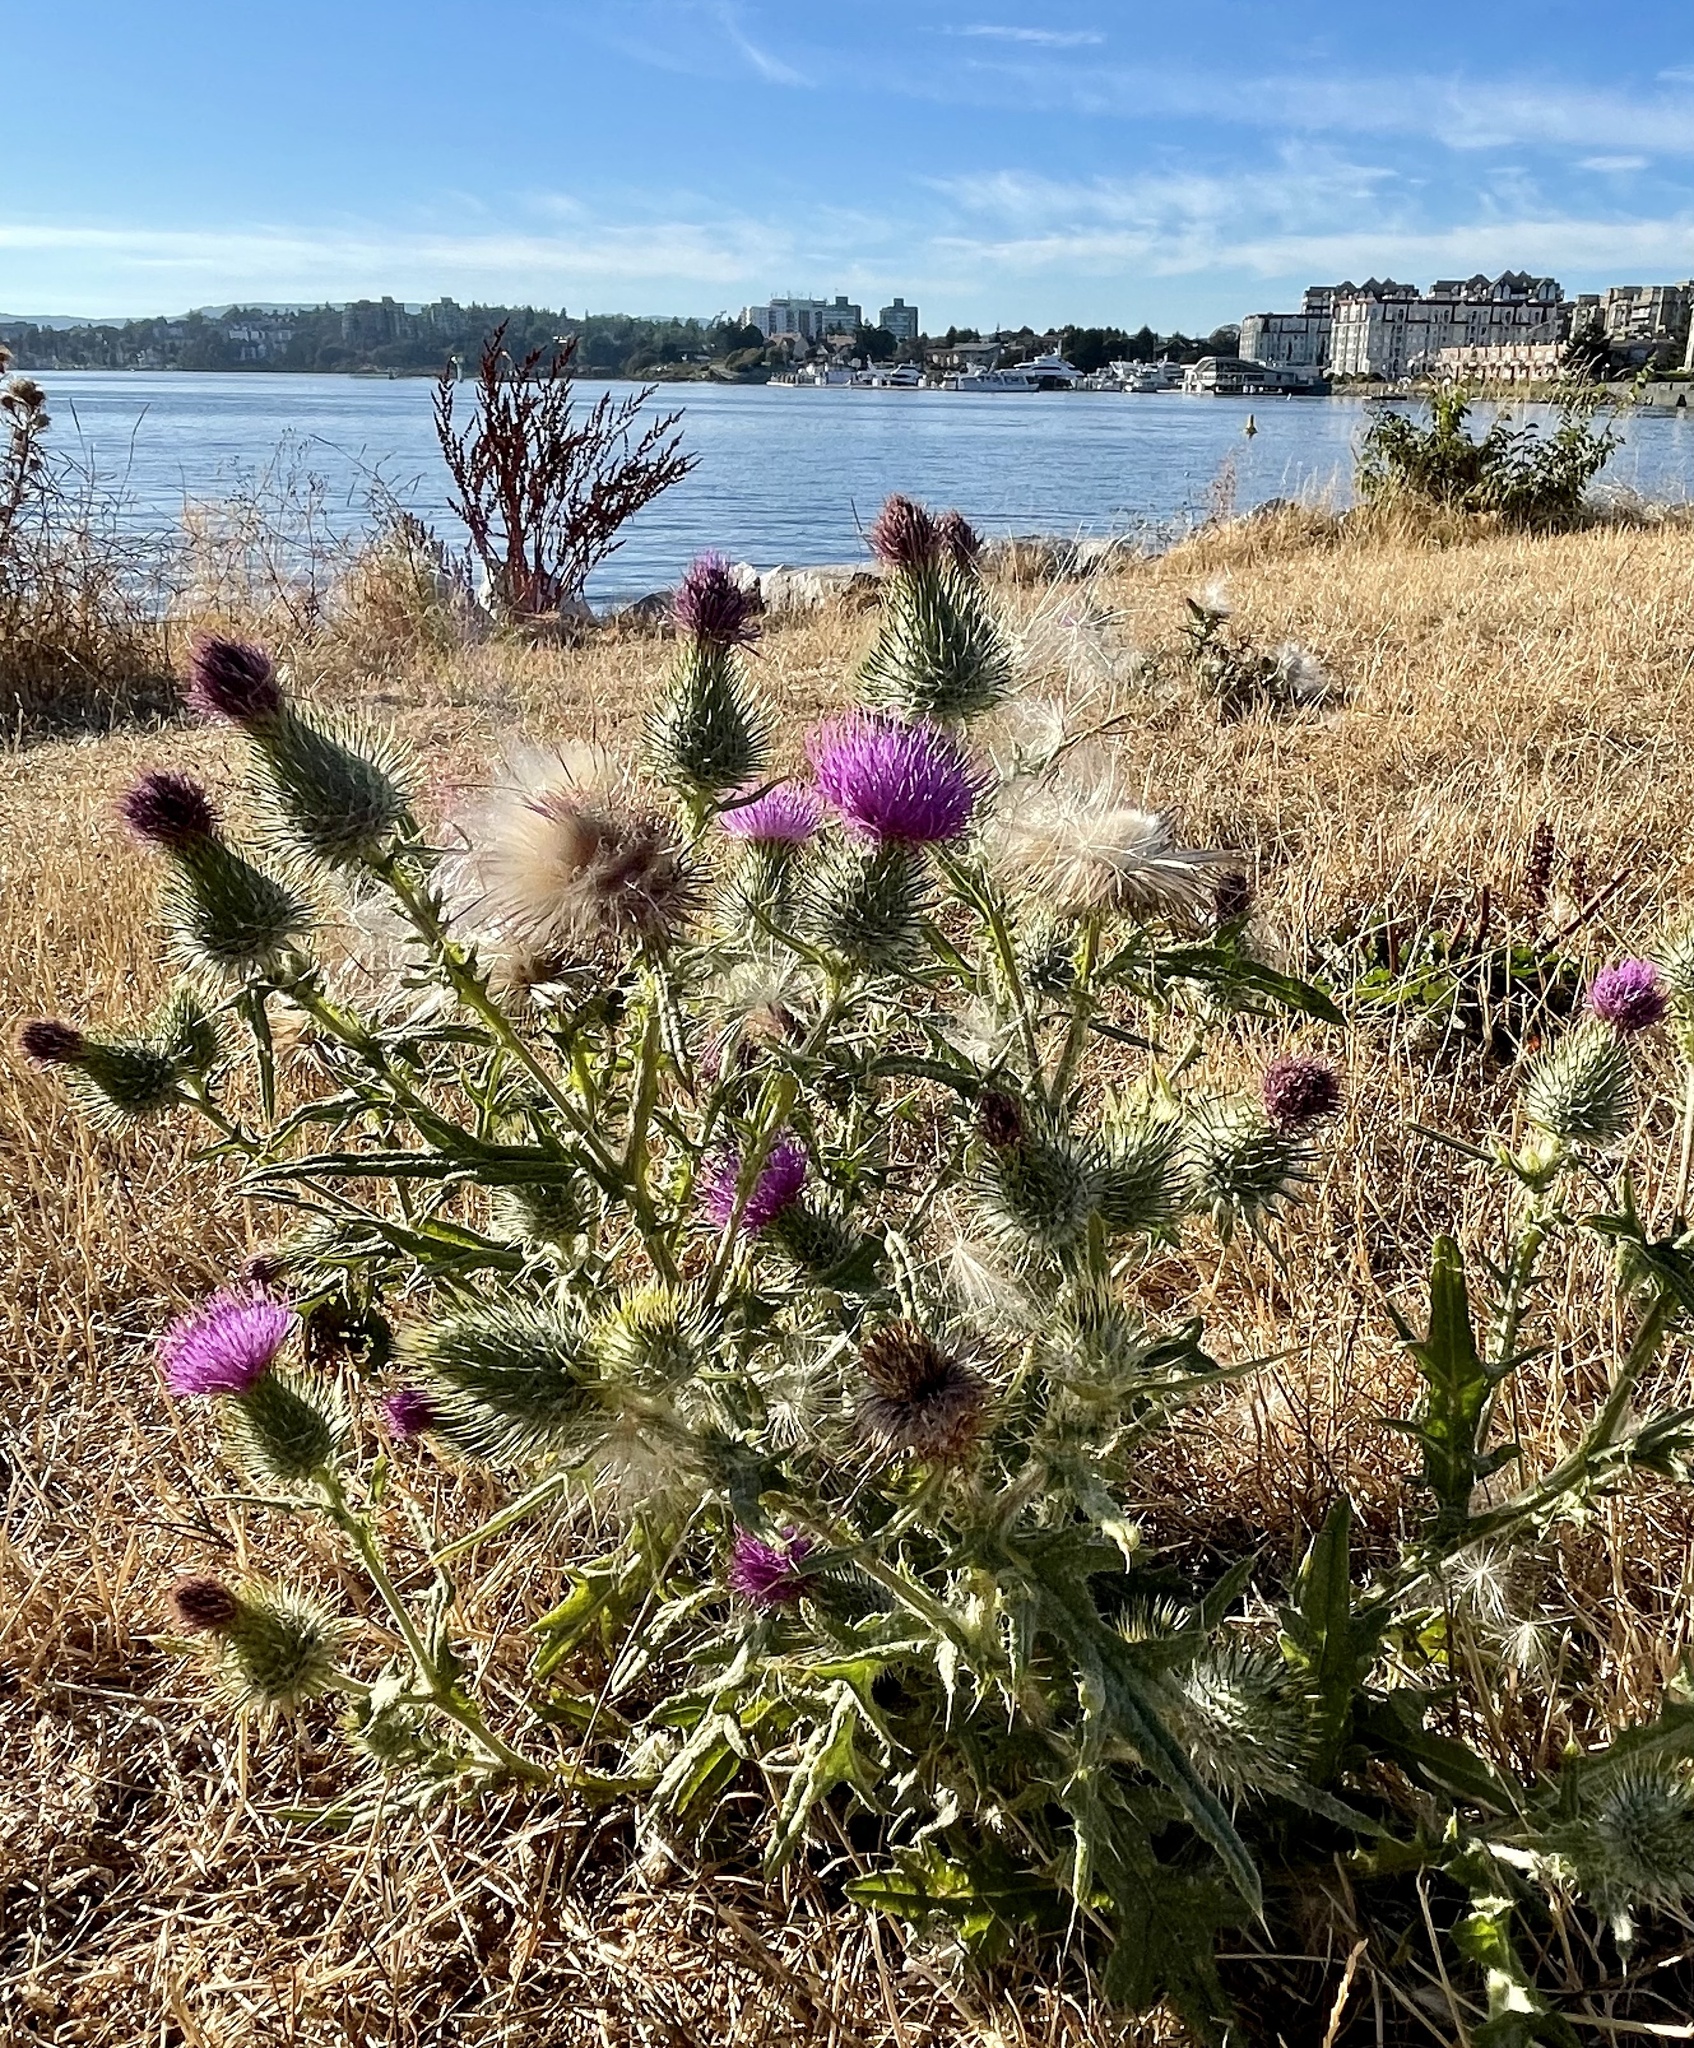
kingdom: Plantae
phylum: Tracheophyta
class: Magnoliopsida
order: Asterales
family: Asteraceae
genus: Cirsium
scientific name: Cirsium vulgare
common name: Bull thistle
